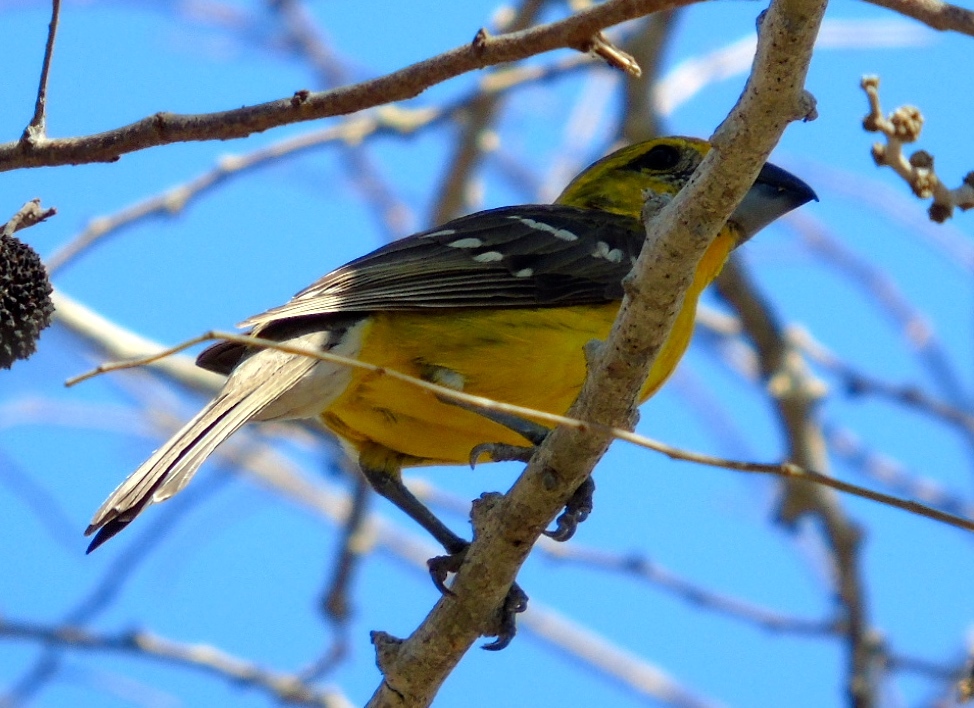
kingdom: Animalia
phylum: Chordata
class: Aves
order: Passeriformes
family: Cardinalidae
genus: Pheucticus
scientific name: Pheucticus chrysopeplus
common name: Yellow grosbeak
